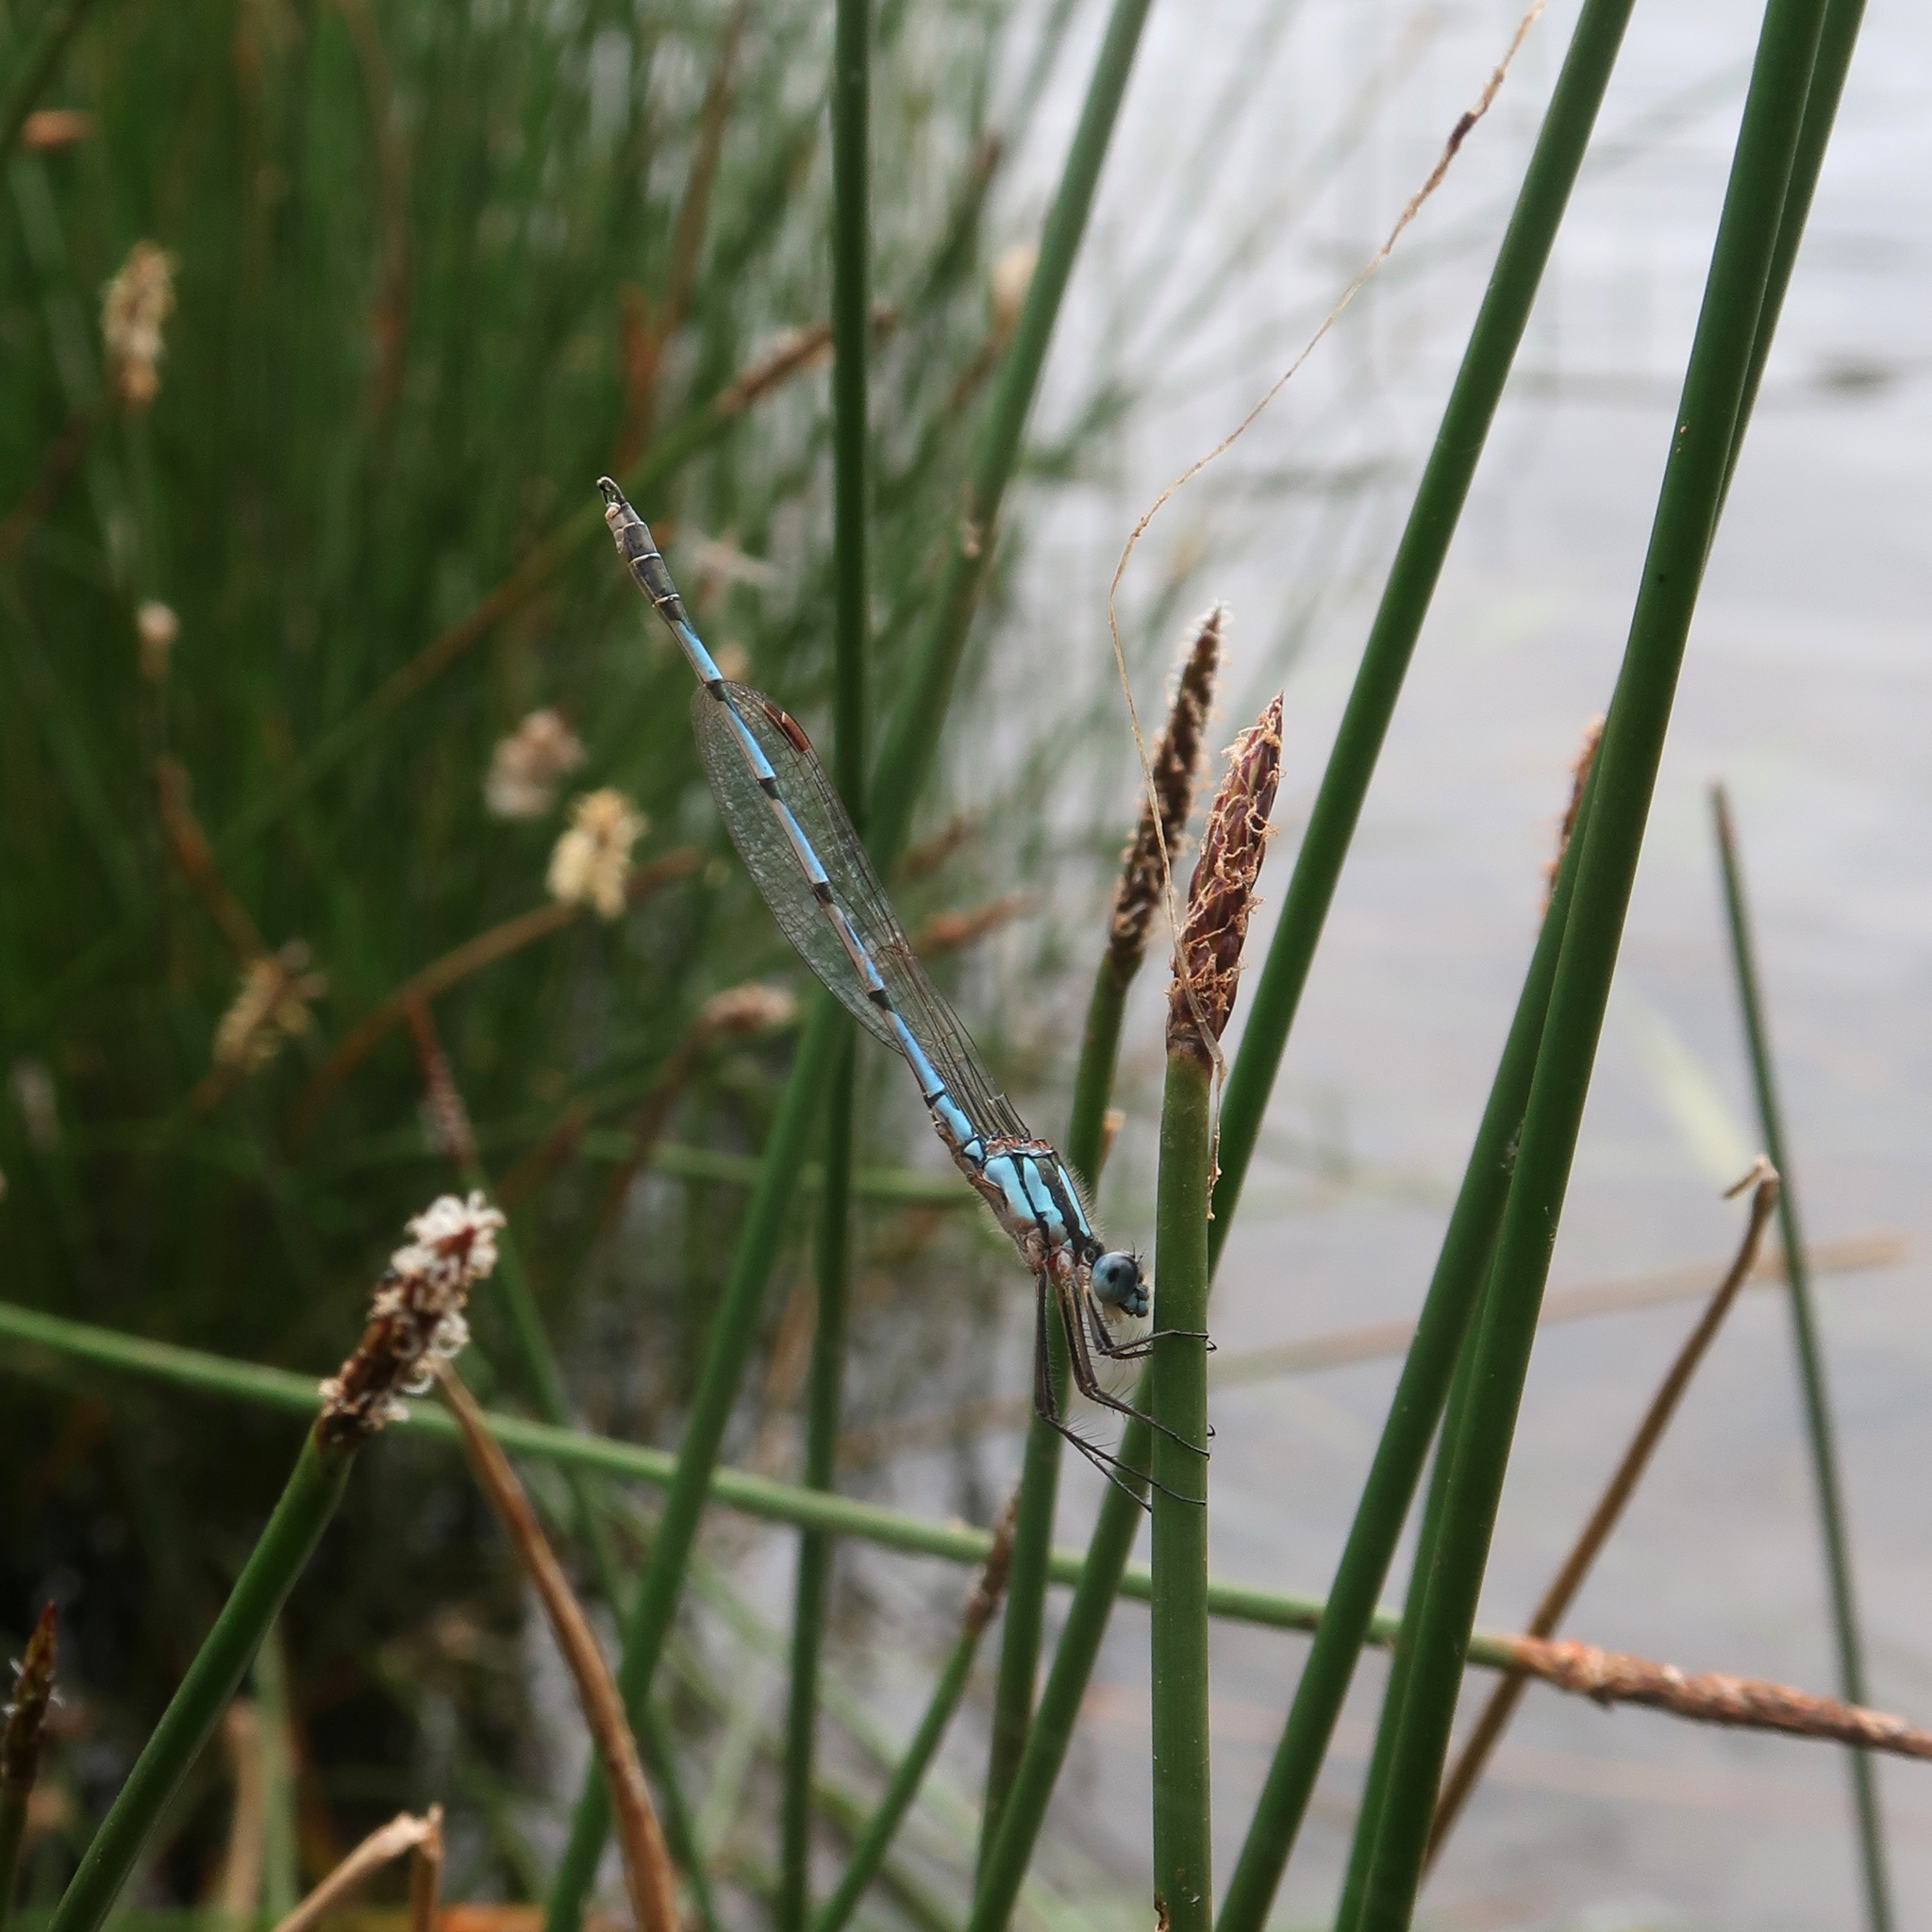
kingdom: Animalia
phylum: Arthropoda
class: Insecta
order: Odonata
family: Lestidae
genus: Austrolestes
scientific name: Austrolestes annulosus
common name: Blue ringtail
